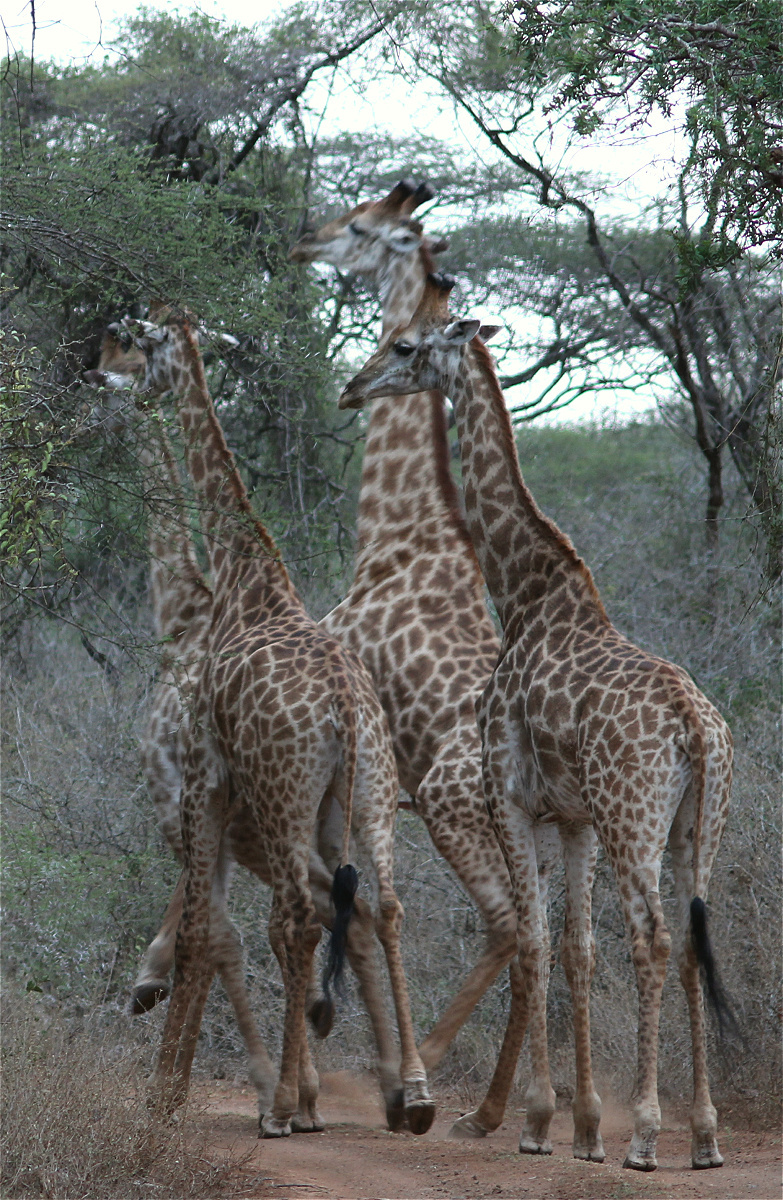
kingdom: Animalia
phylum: Chordata
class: Mammalia
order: Artiodactyla
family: Giraffidae
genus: Giraffa
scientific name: Giraffa giraffa
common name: Southern giraffe
